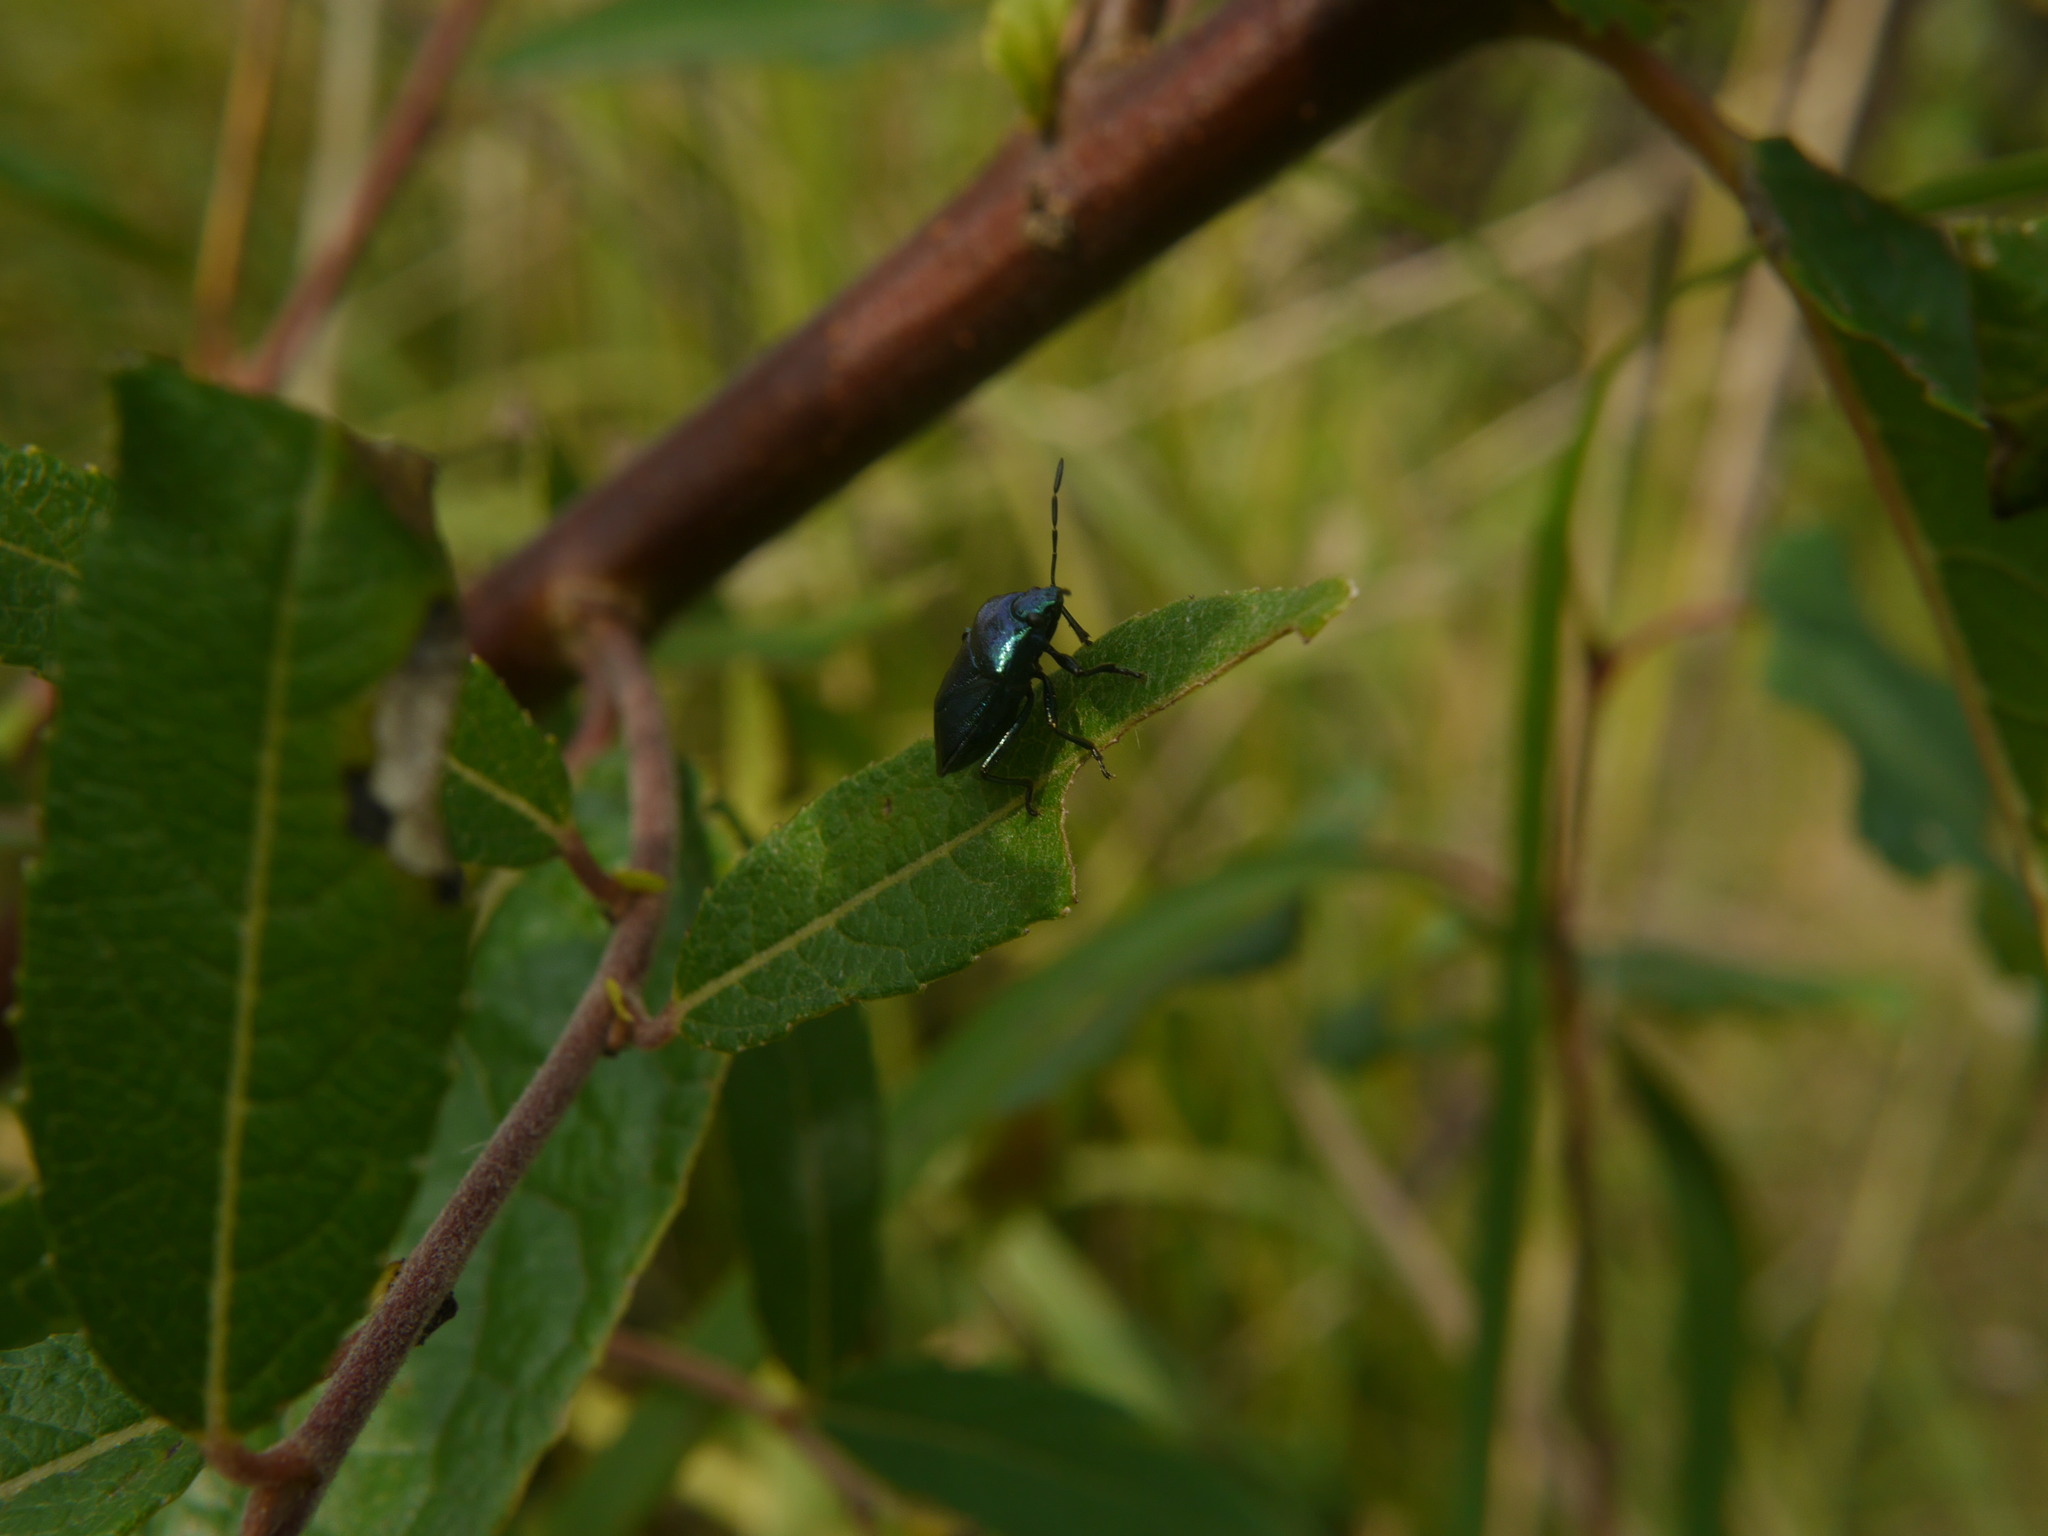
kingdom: Animalia
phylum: Arthropoda
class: Insecta
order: Hemiptera
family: Pentatomidae
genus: Zicrona
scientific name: Zicrona caerulea
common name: Blue shieldbug
